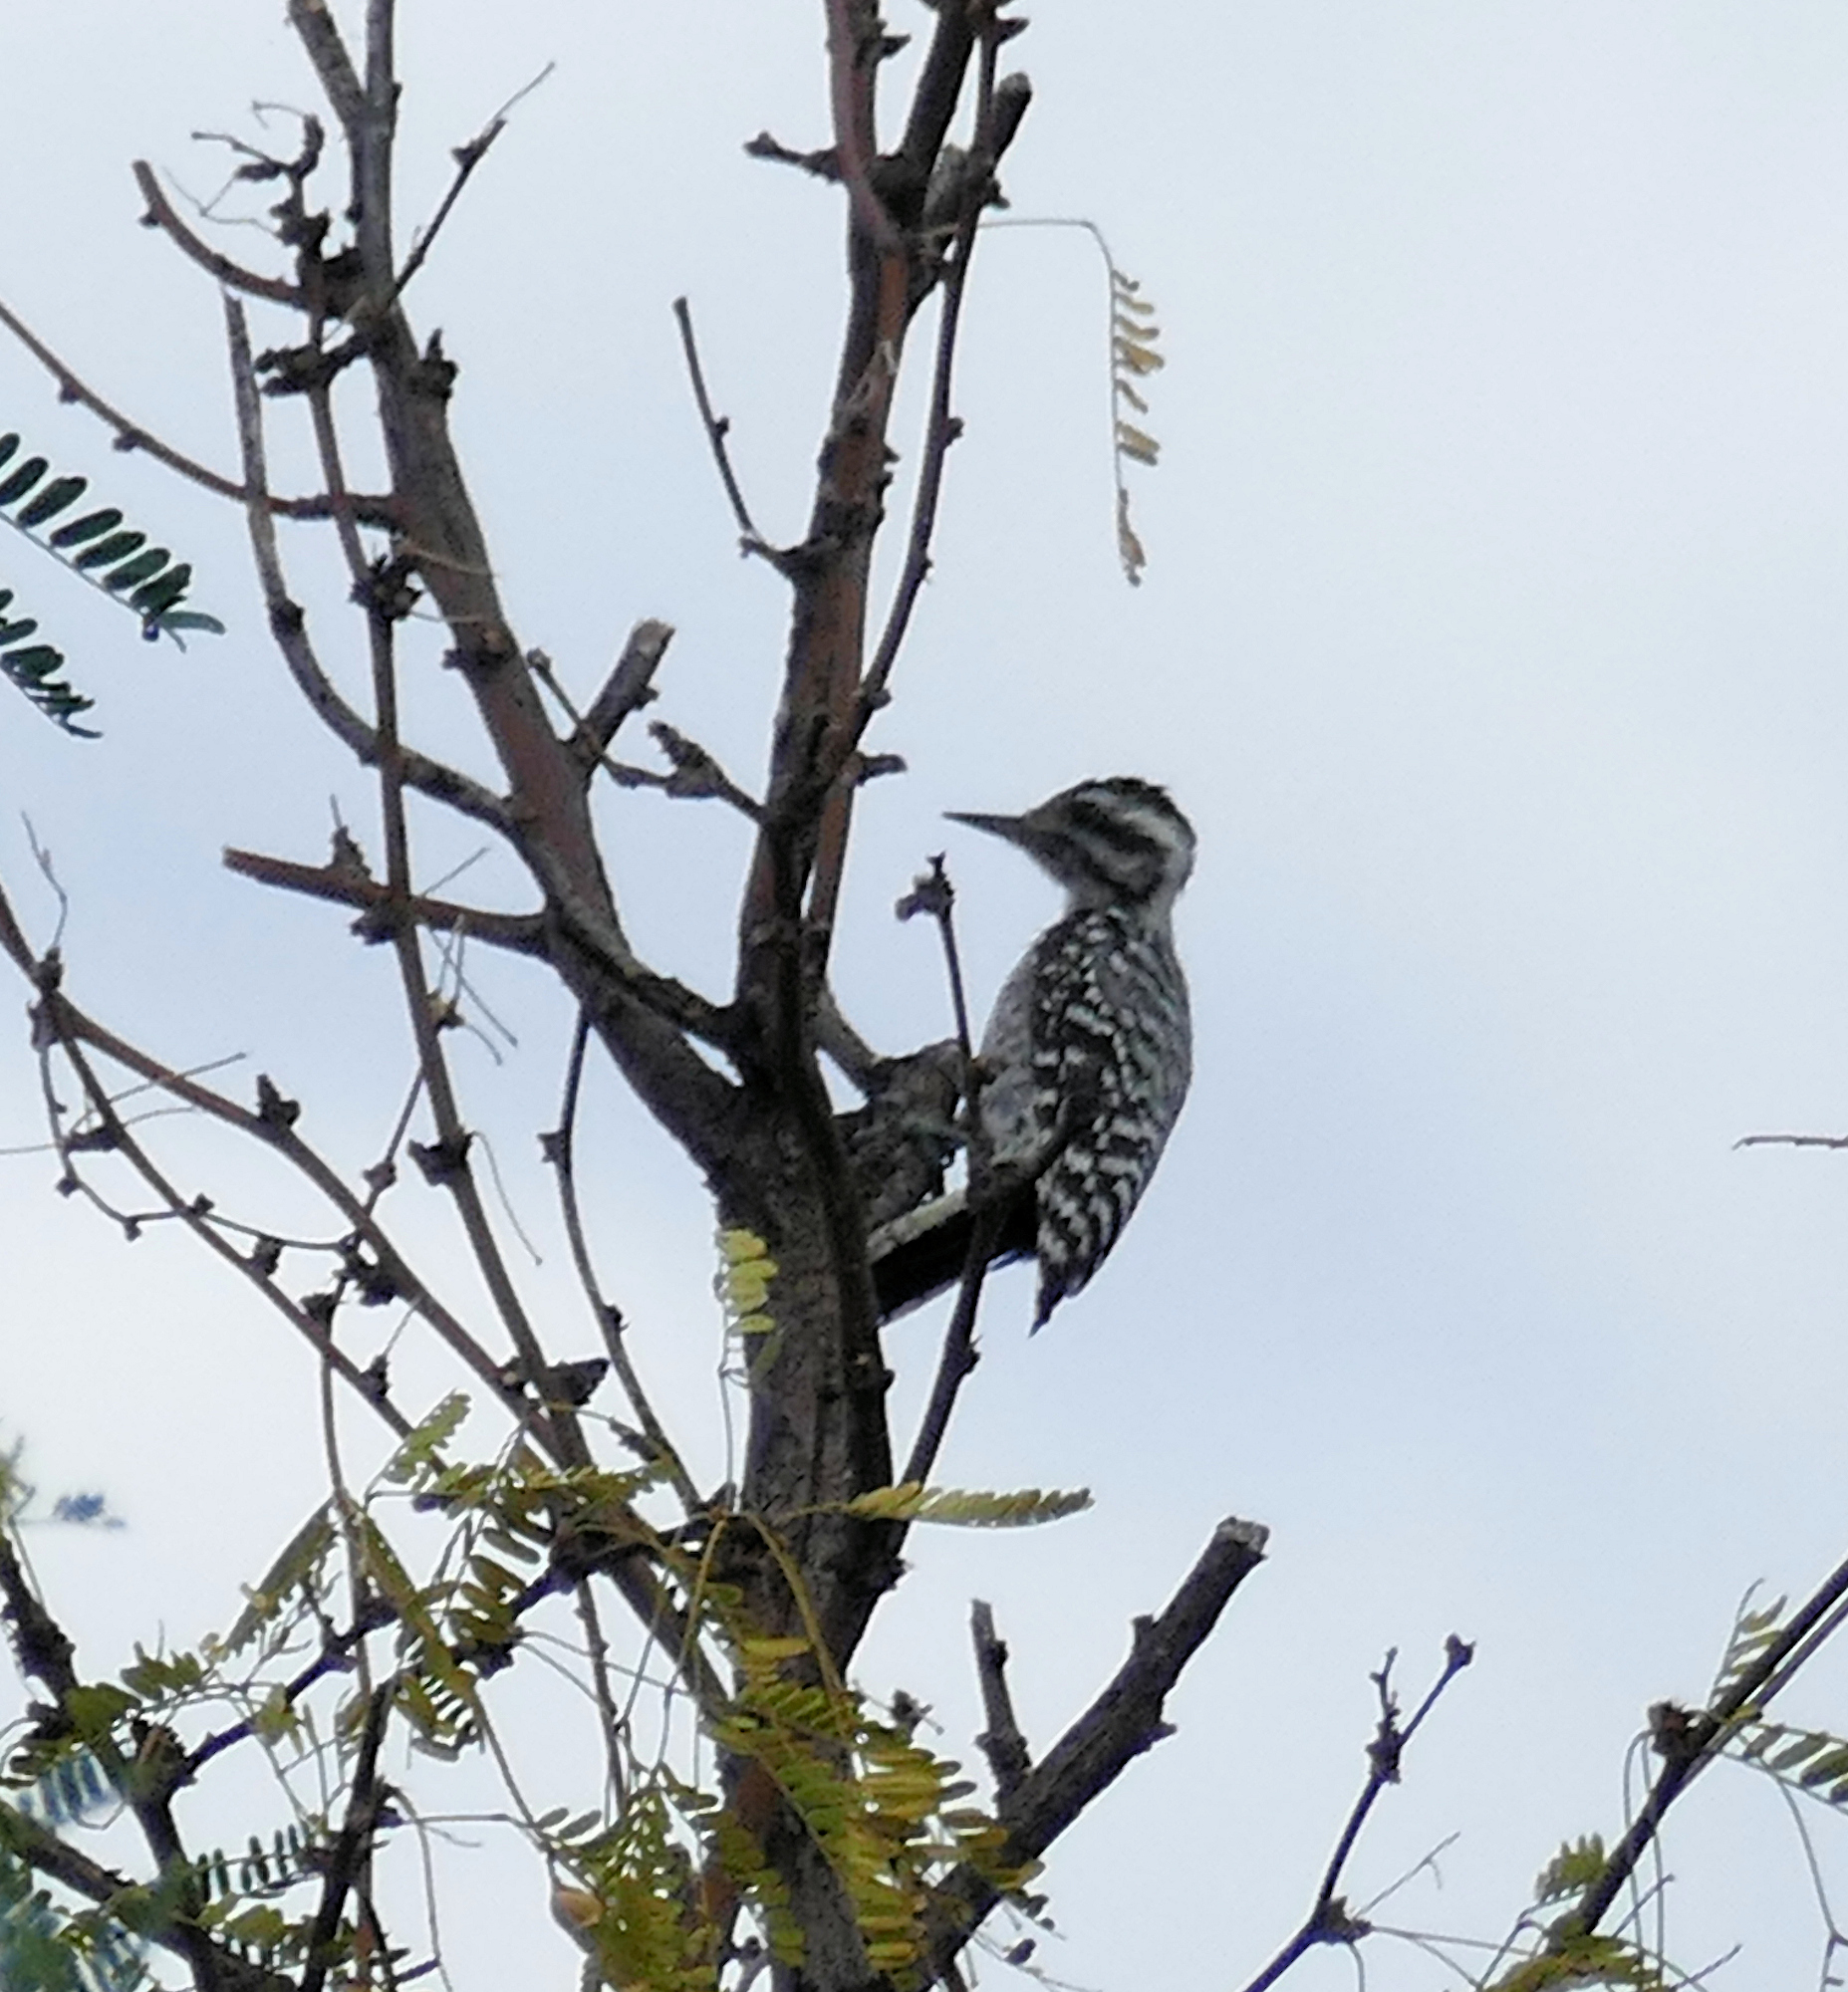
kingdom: Animalia
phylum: Chordata
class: Aves
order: Piciformes
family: Picidae
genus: Dryobates
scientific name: Dryobates scalaris
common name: Ladder-backed woodpecker
